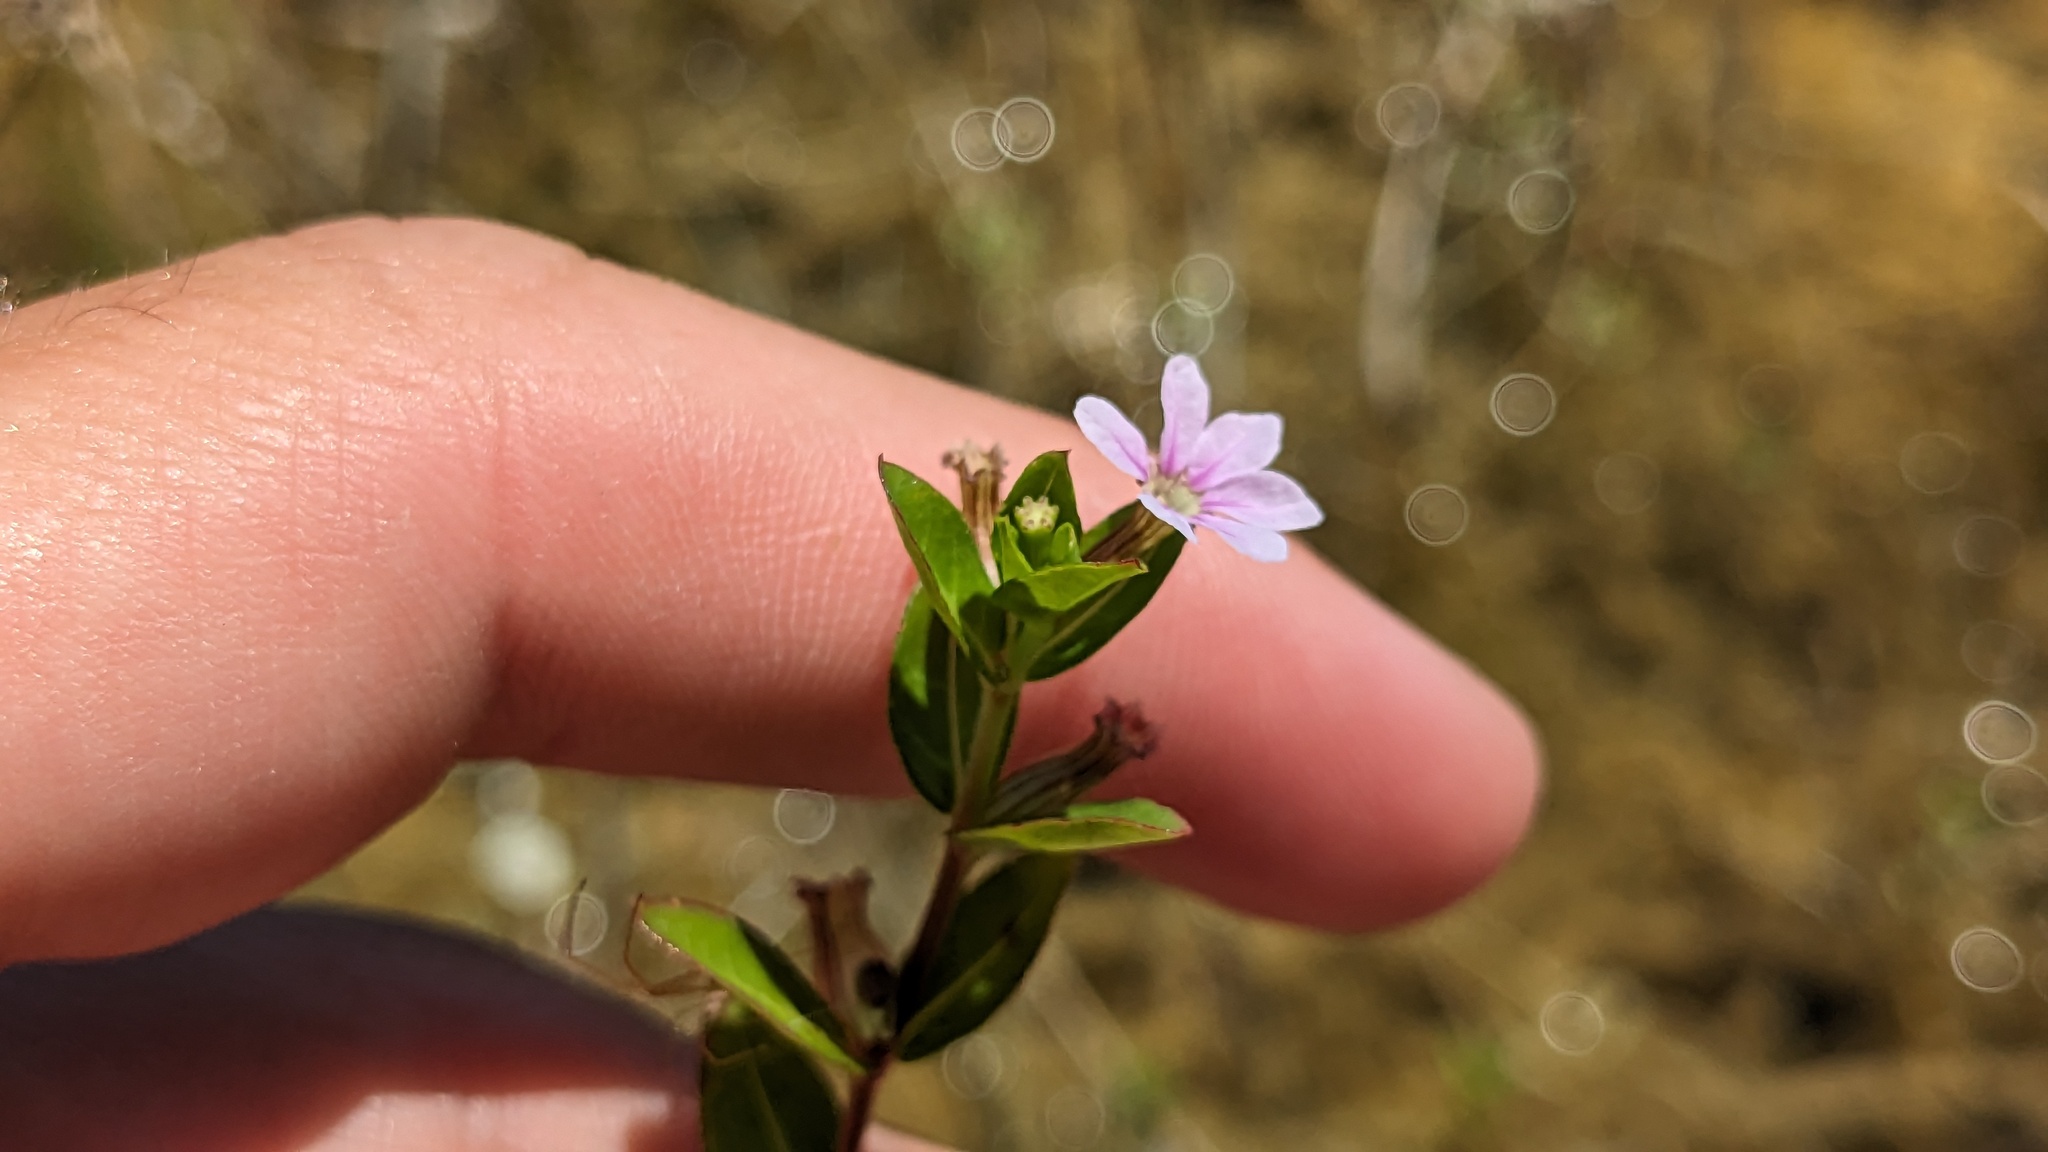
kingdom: Plantae
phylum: Tracheophyta
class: Magnoliopsida
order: Myrtales
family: Lythraceae
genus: Cuphea
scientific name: Cuphea strigulosa
